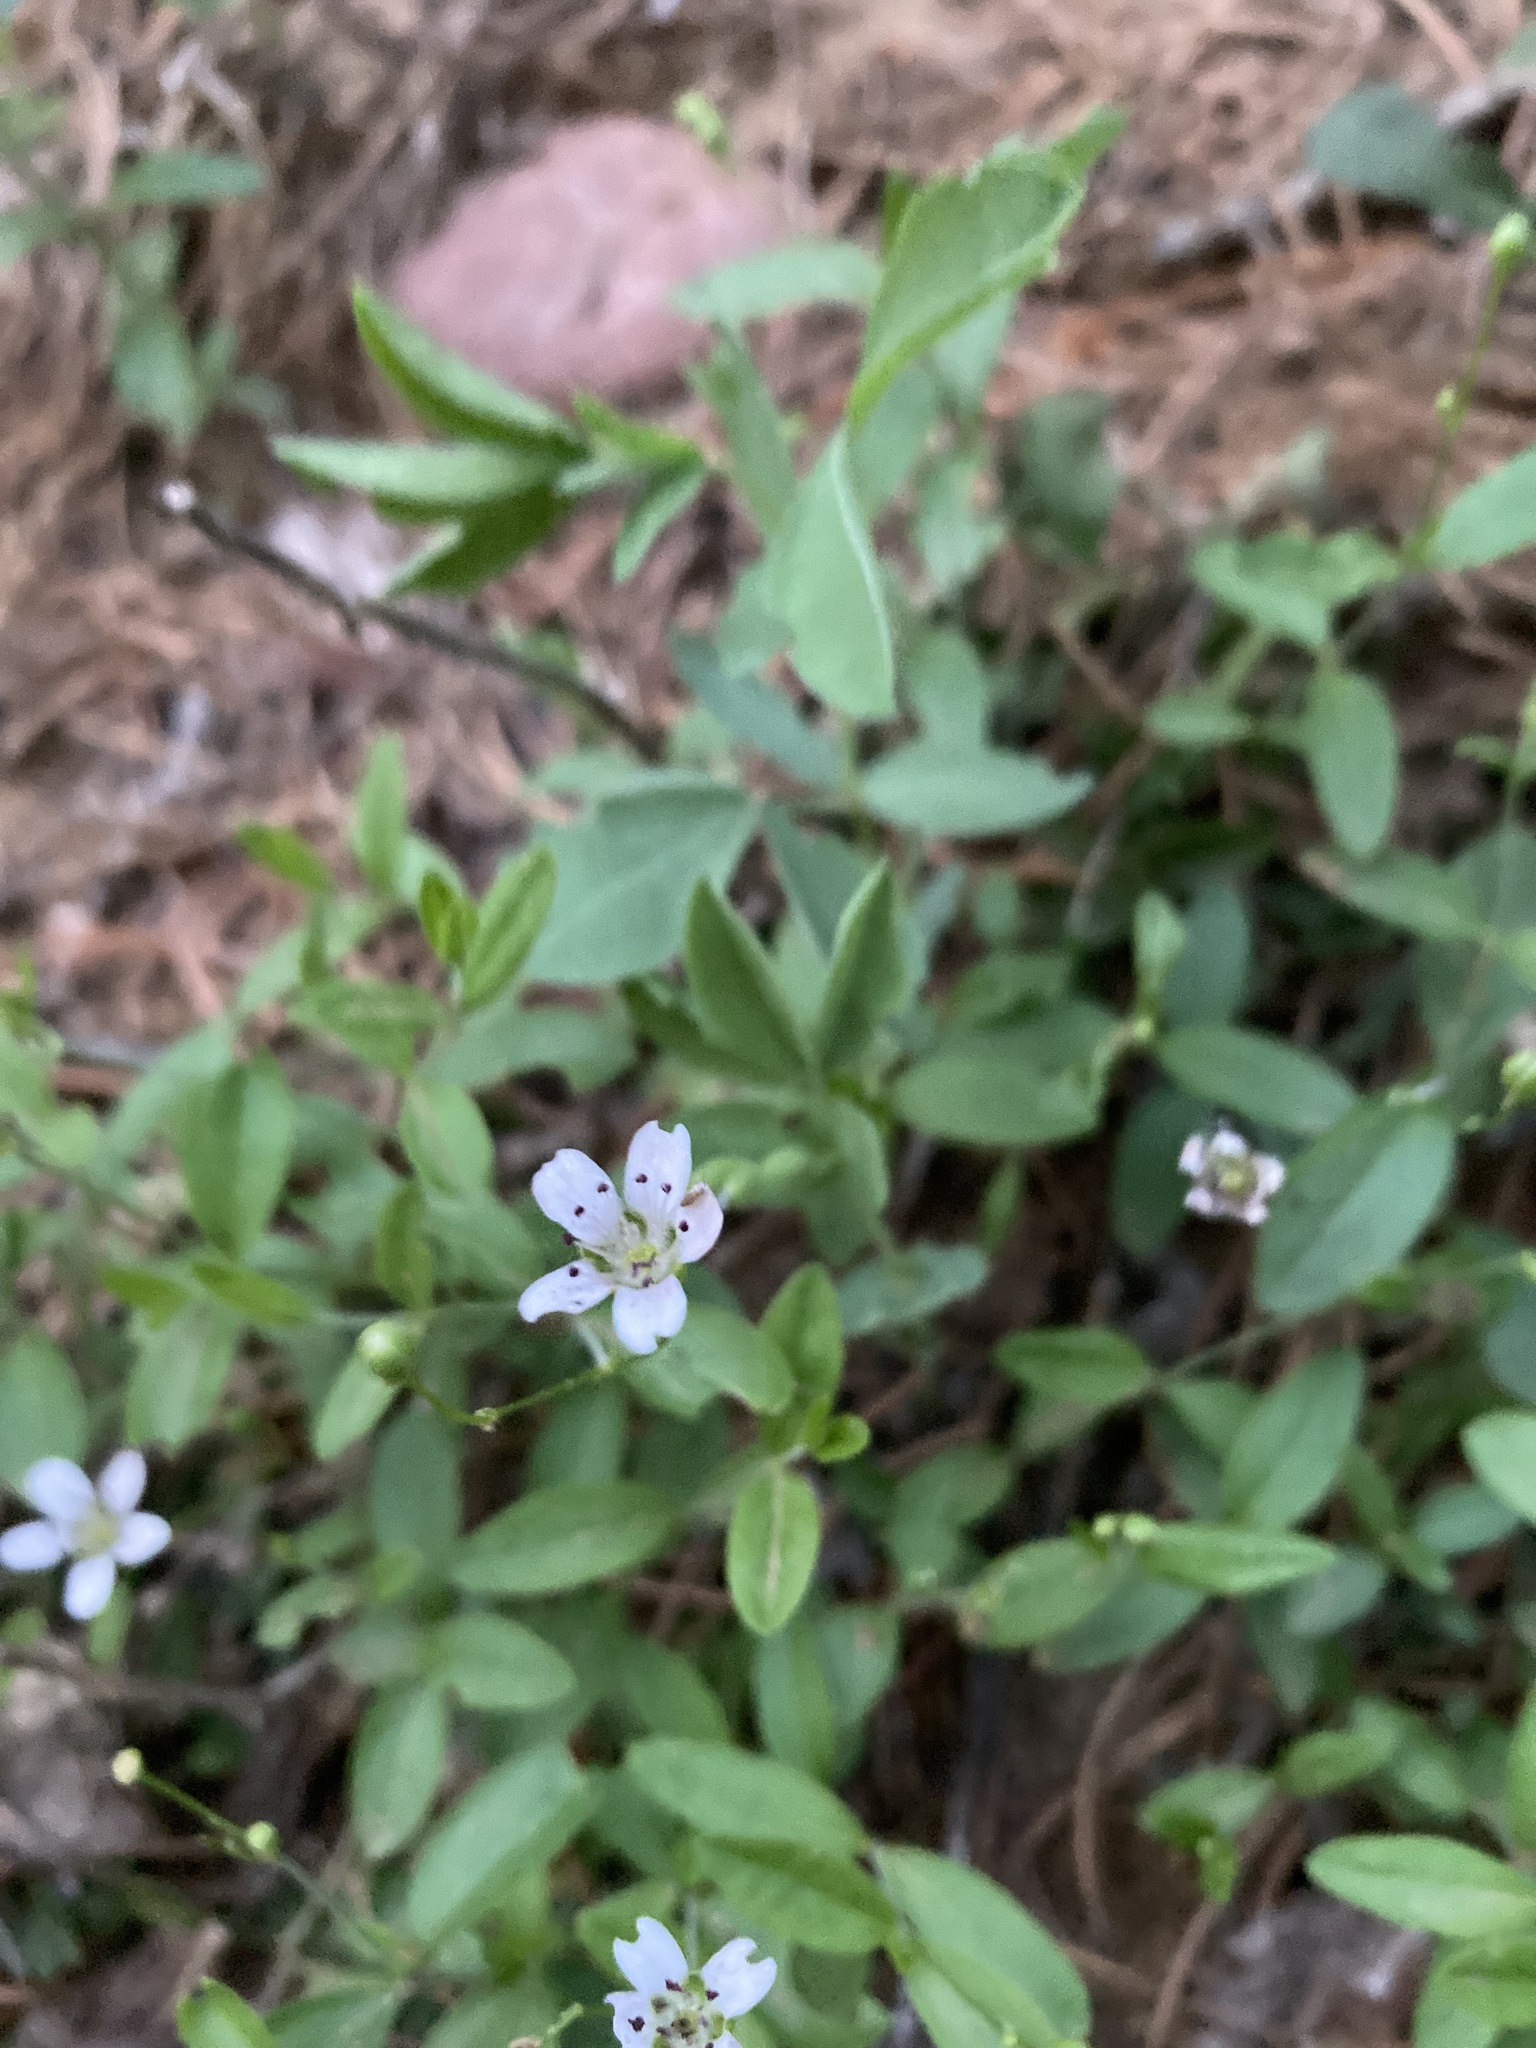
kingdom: Plantae
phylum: Tracheophyta
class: Magnoliopsida
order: Caryophyllales
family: Caryophyllaceae
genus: Moehringia
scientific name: Moehringia lateriflora
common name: Blunt-leaved sandwort
